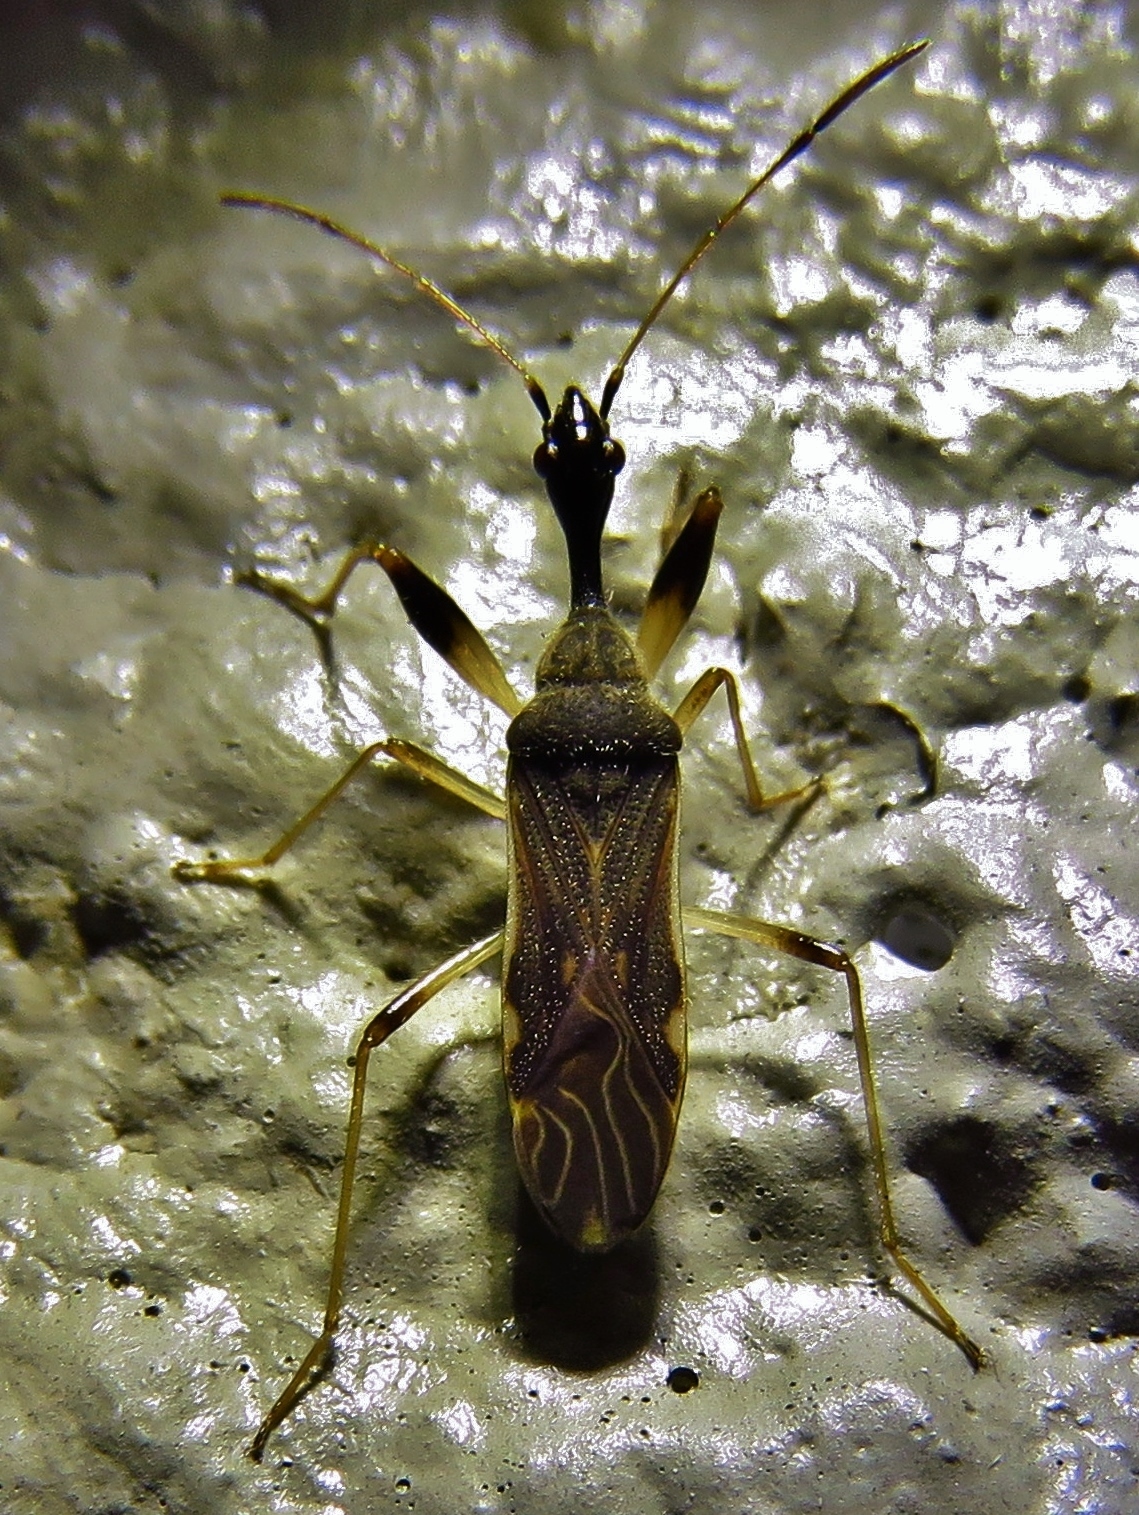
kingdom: Animalia
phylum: Arthropoda
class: Insecta
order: Hemiptera
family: Rhyparochromidae
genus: Myodocha
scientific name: Myodocha serripes
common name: Long-necked seed bug
